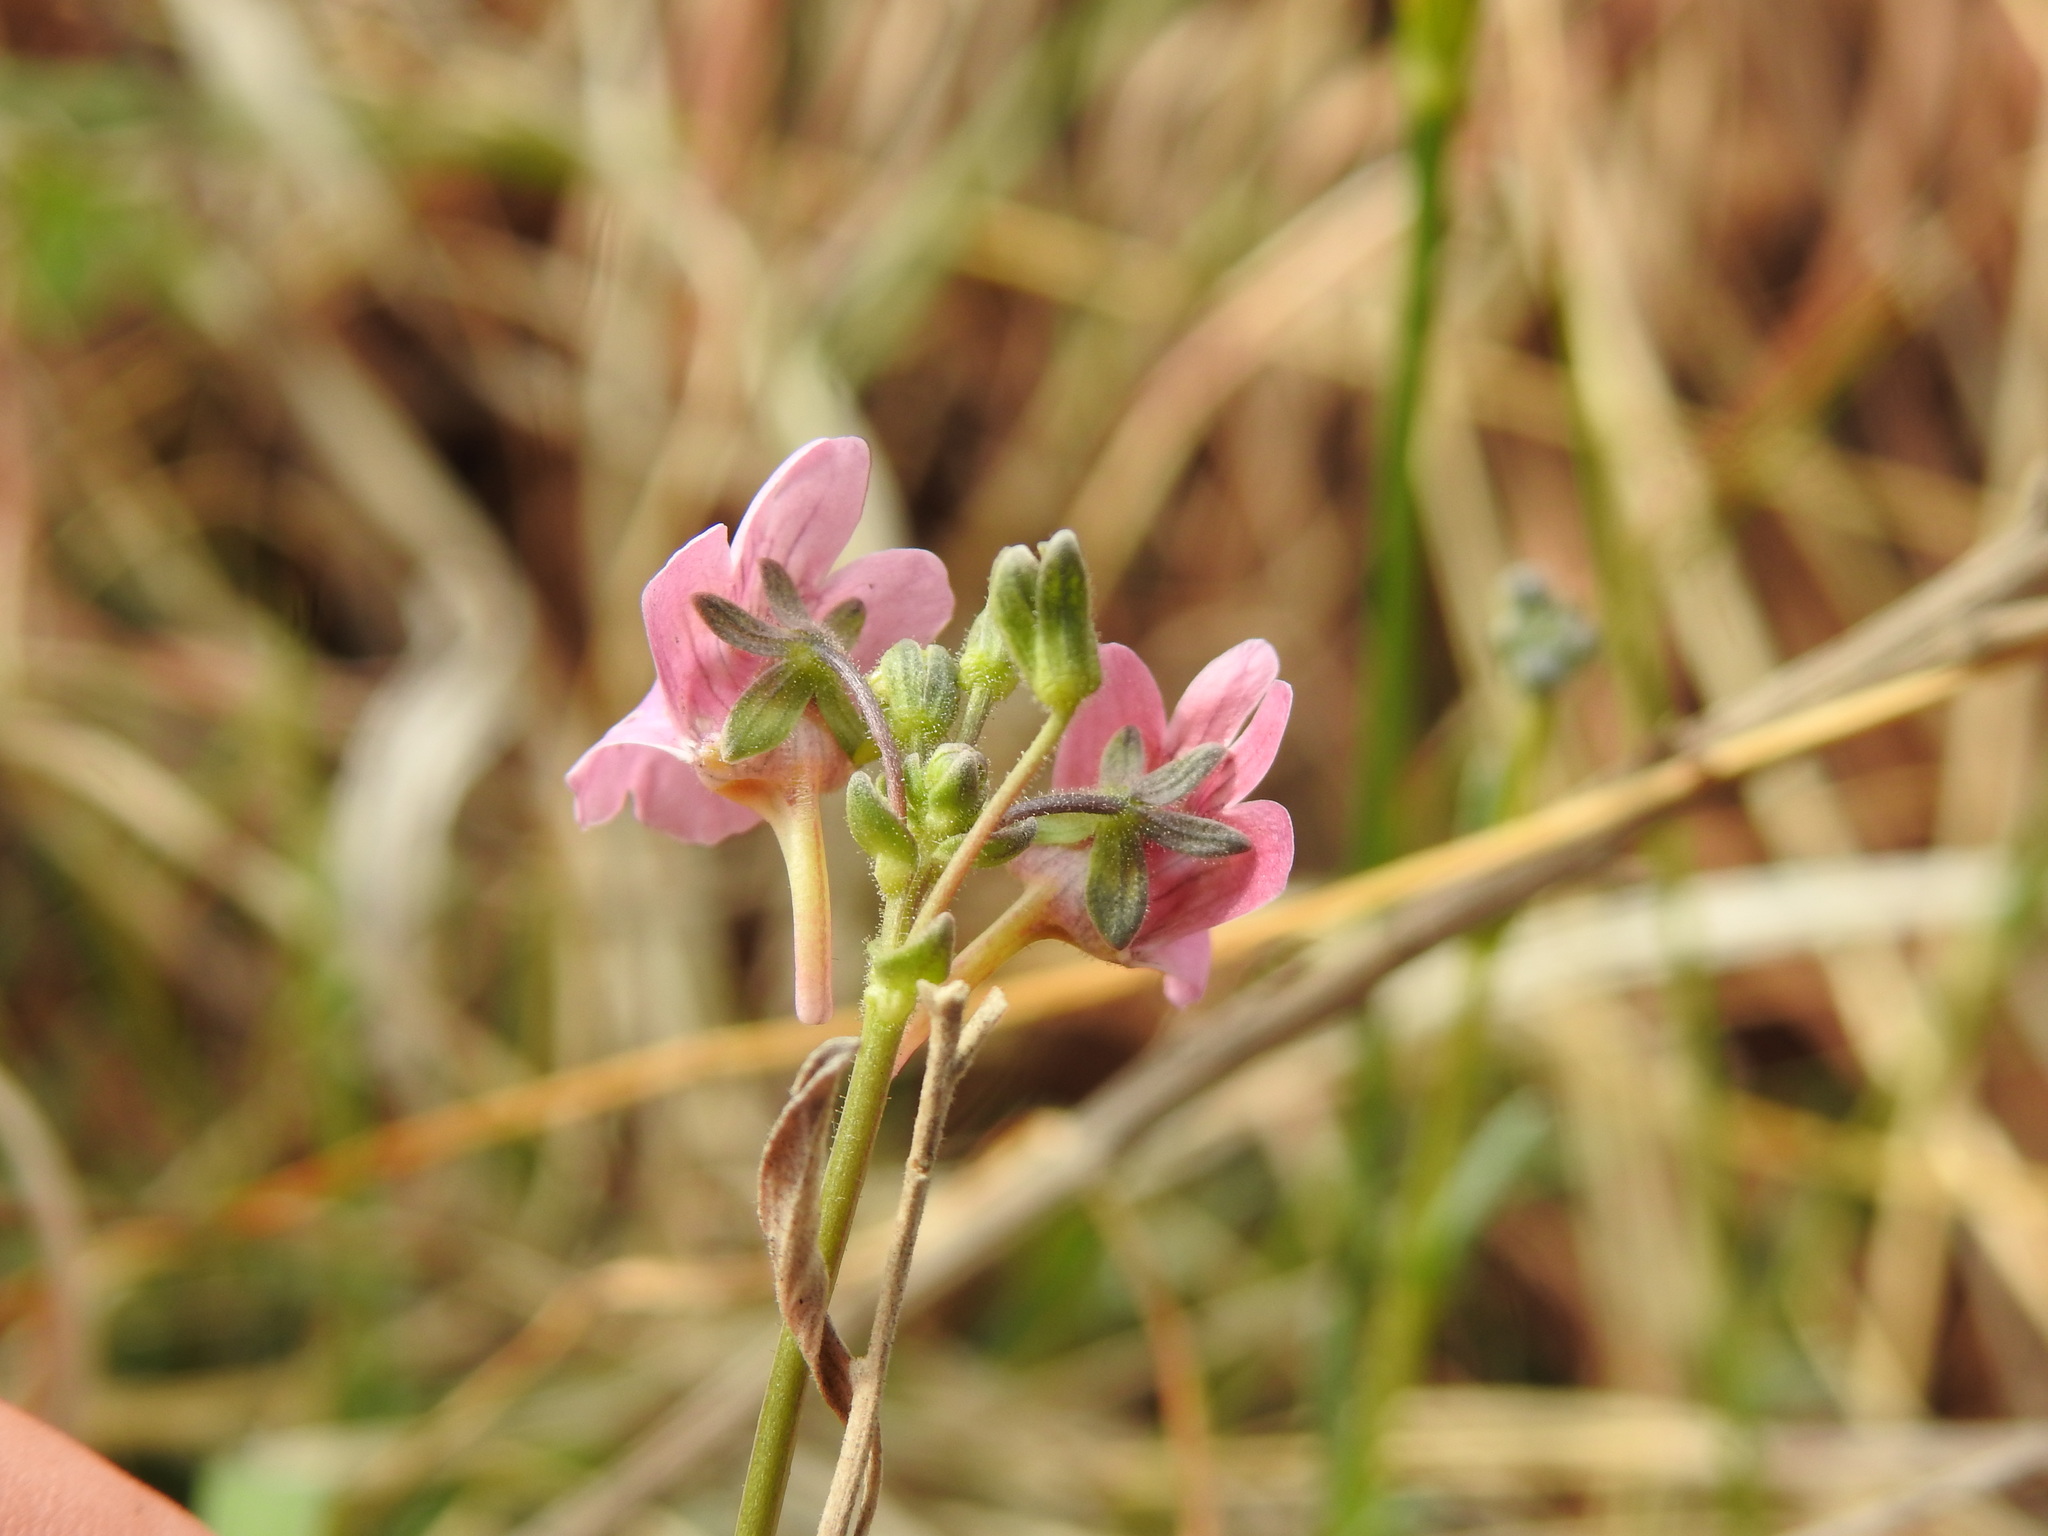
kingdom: Plantae
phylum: Tracheophyta
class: Magnoliopsida
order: Lamiales
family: Scrophulariaceae
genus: Nemesia
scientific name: Nemesia fruticans
